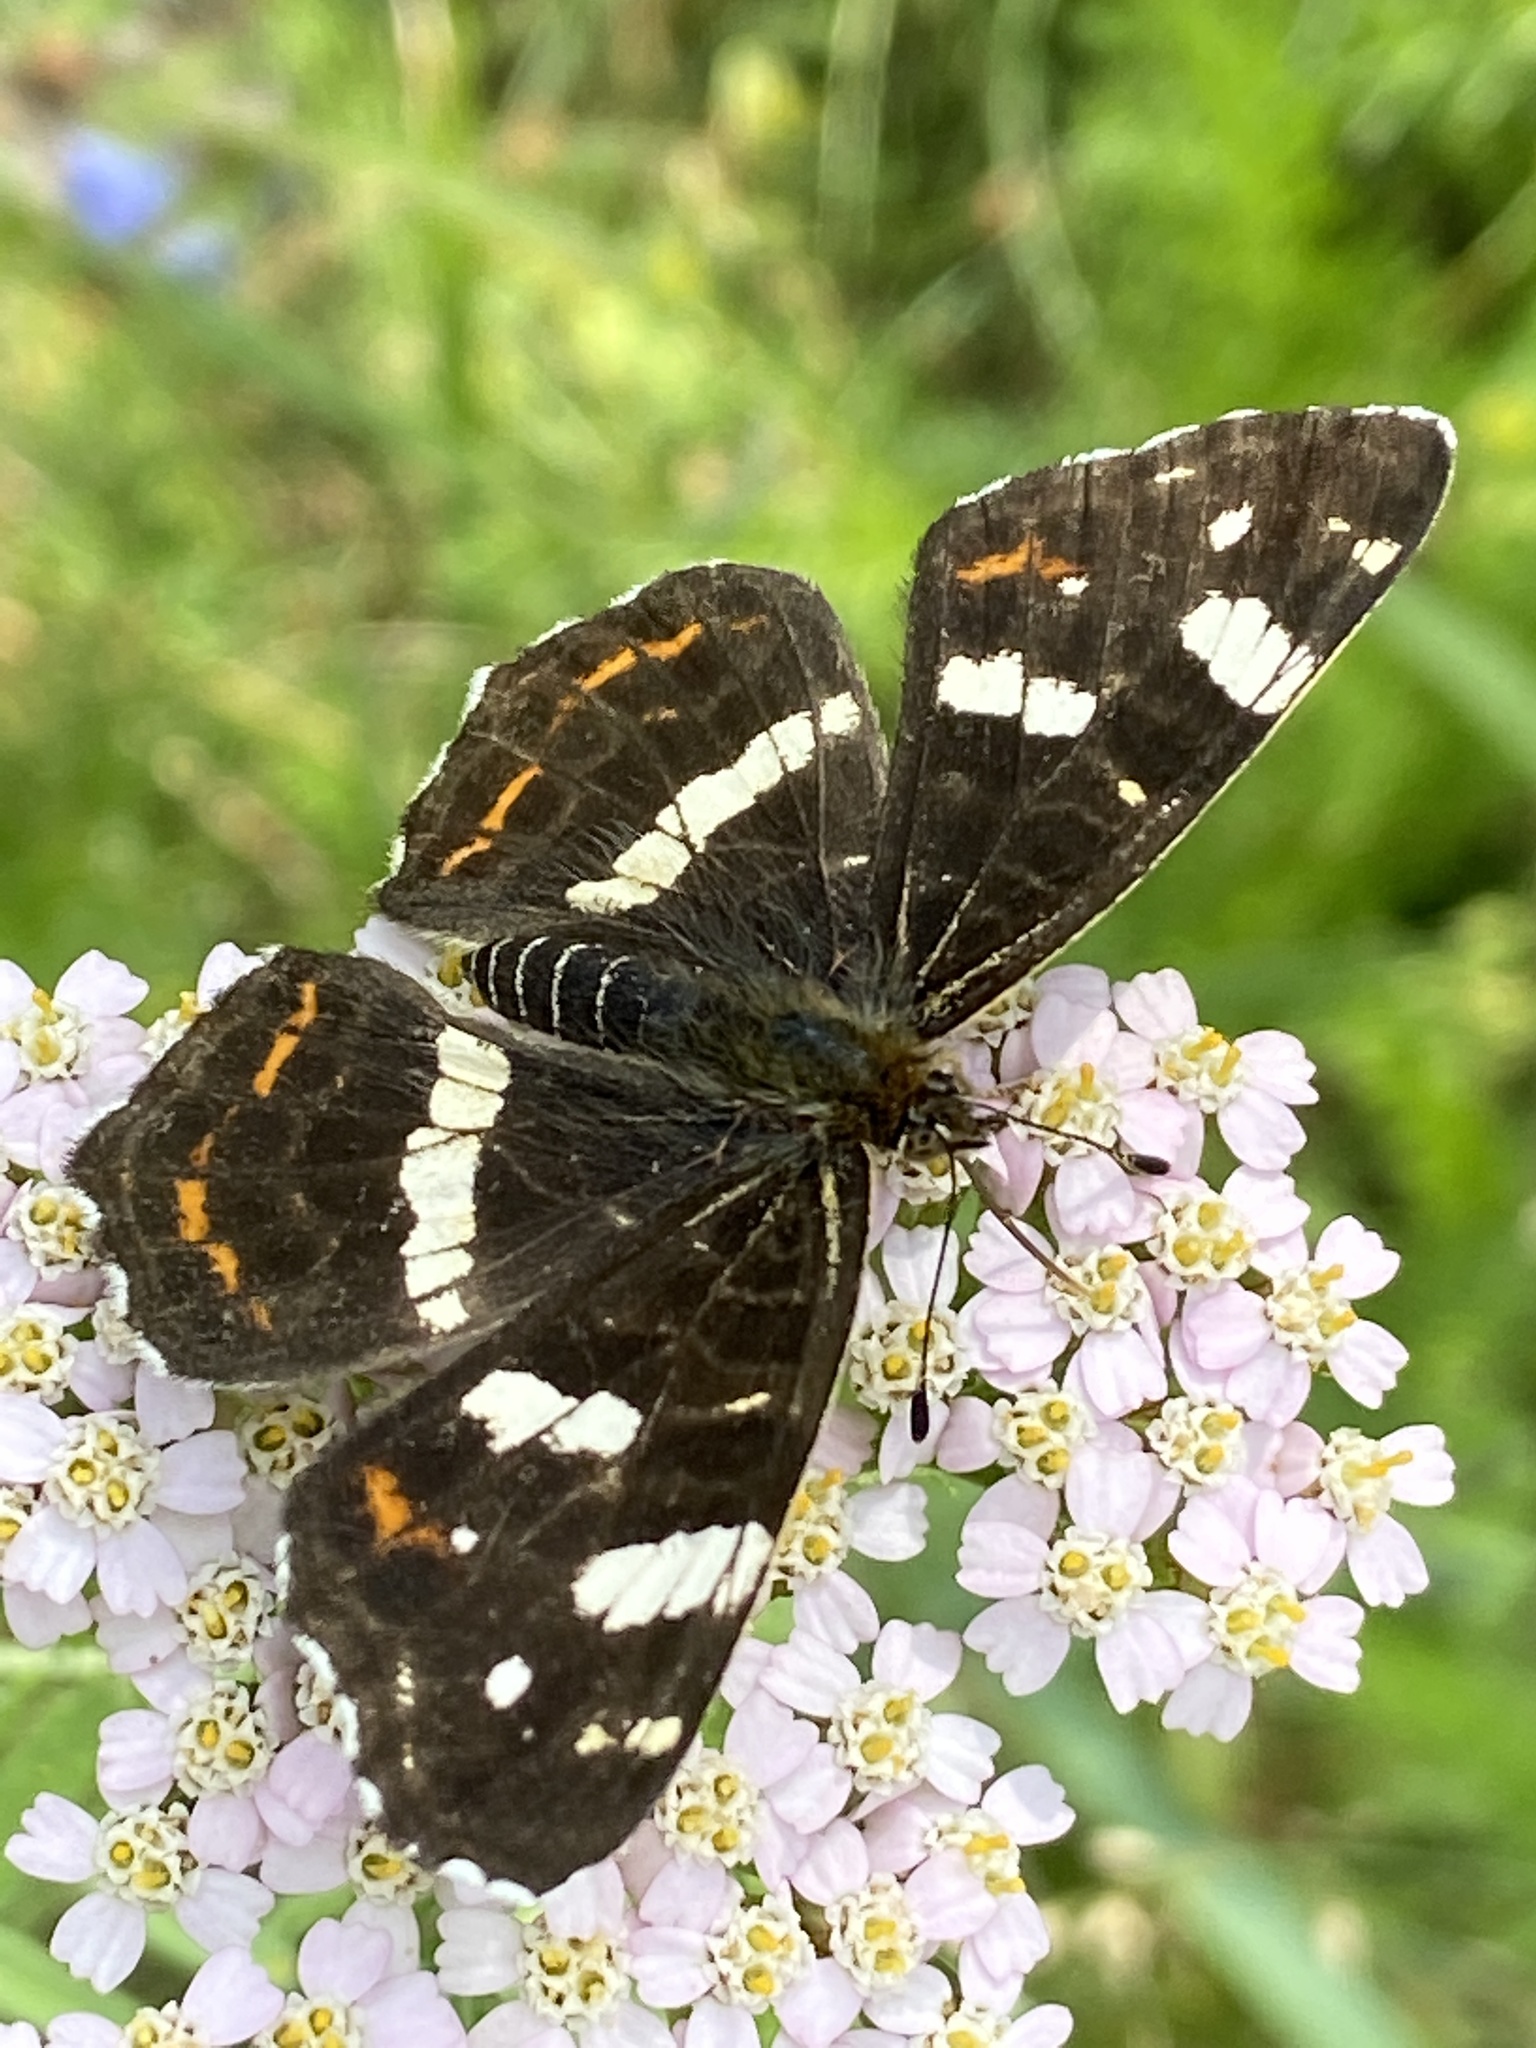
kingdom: Animalia
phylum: Arthropoda
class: Insecta
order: Lepidoptera
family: Nymphalidae
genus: Araschnia
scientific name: Araschnia levana
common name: Map butterfly
